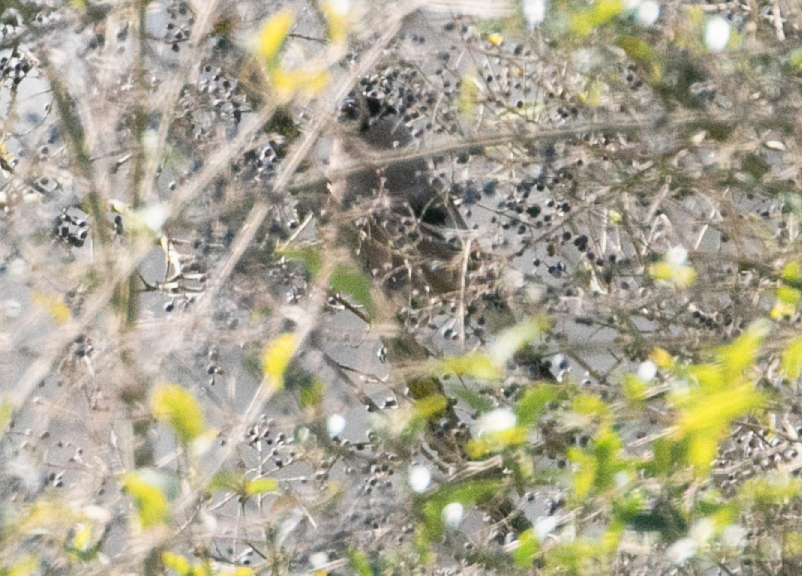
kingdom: Animalia
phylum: Chordata
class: Aves
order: Passeriformes
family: Fringillidae
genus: Pyrrhula
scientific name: Pyrrhula pyrrhula
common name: Eurasian bullfinch
